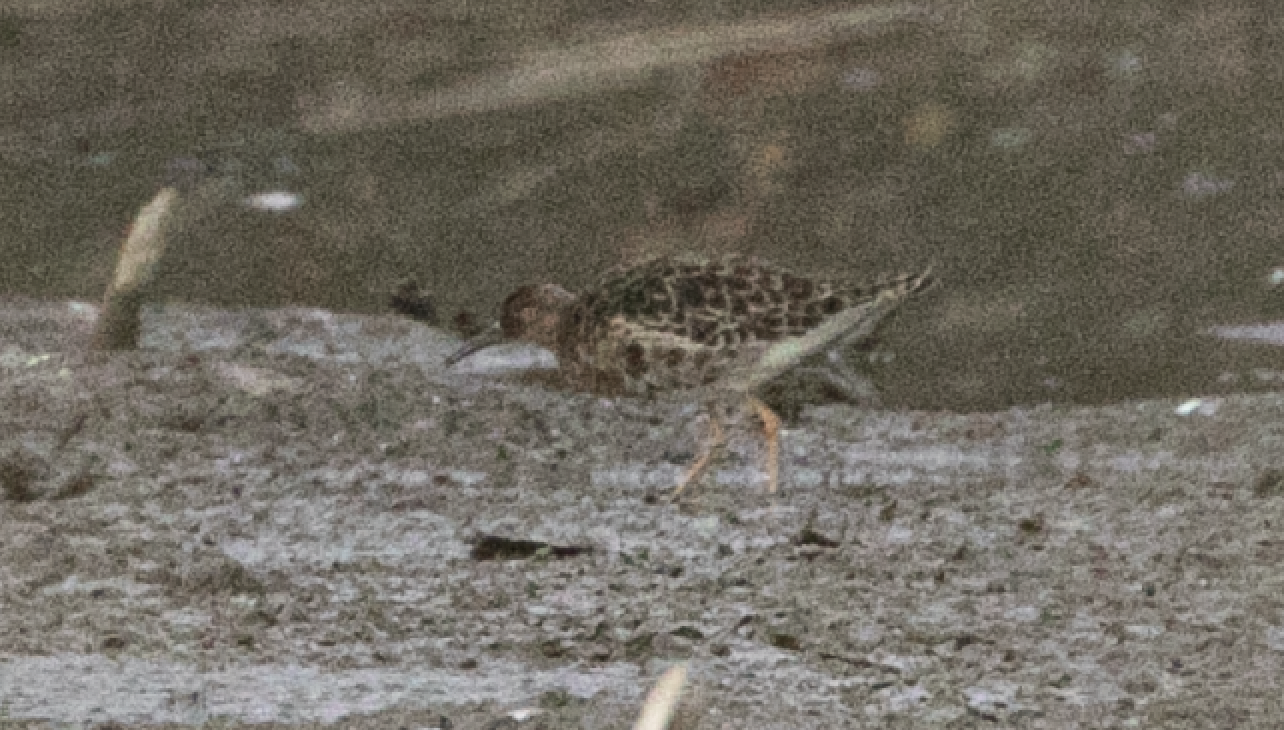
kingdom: Animalia
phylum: Chordata
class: Aves
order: Charadriiformes
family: Scolopacidae
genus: Calidris
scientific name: Calidris pugnax
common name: Ruff
